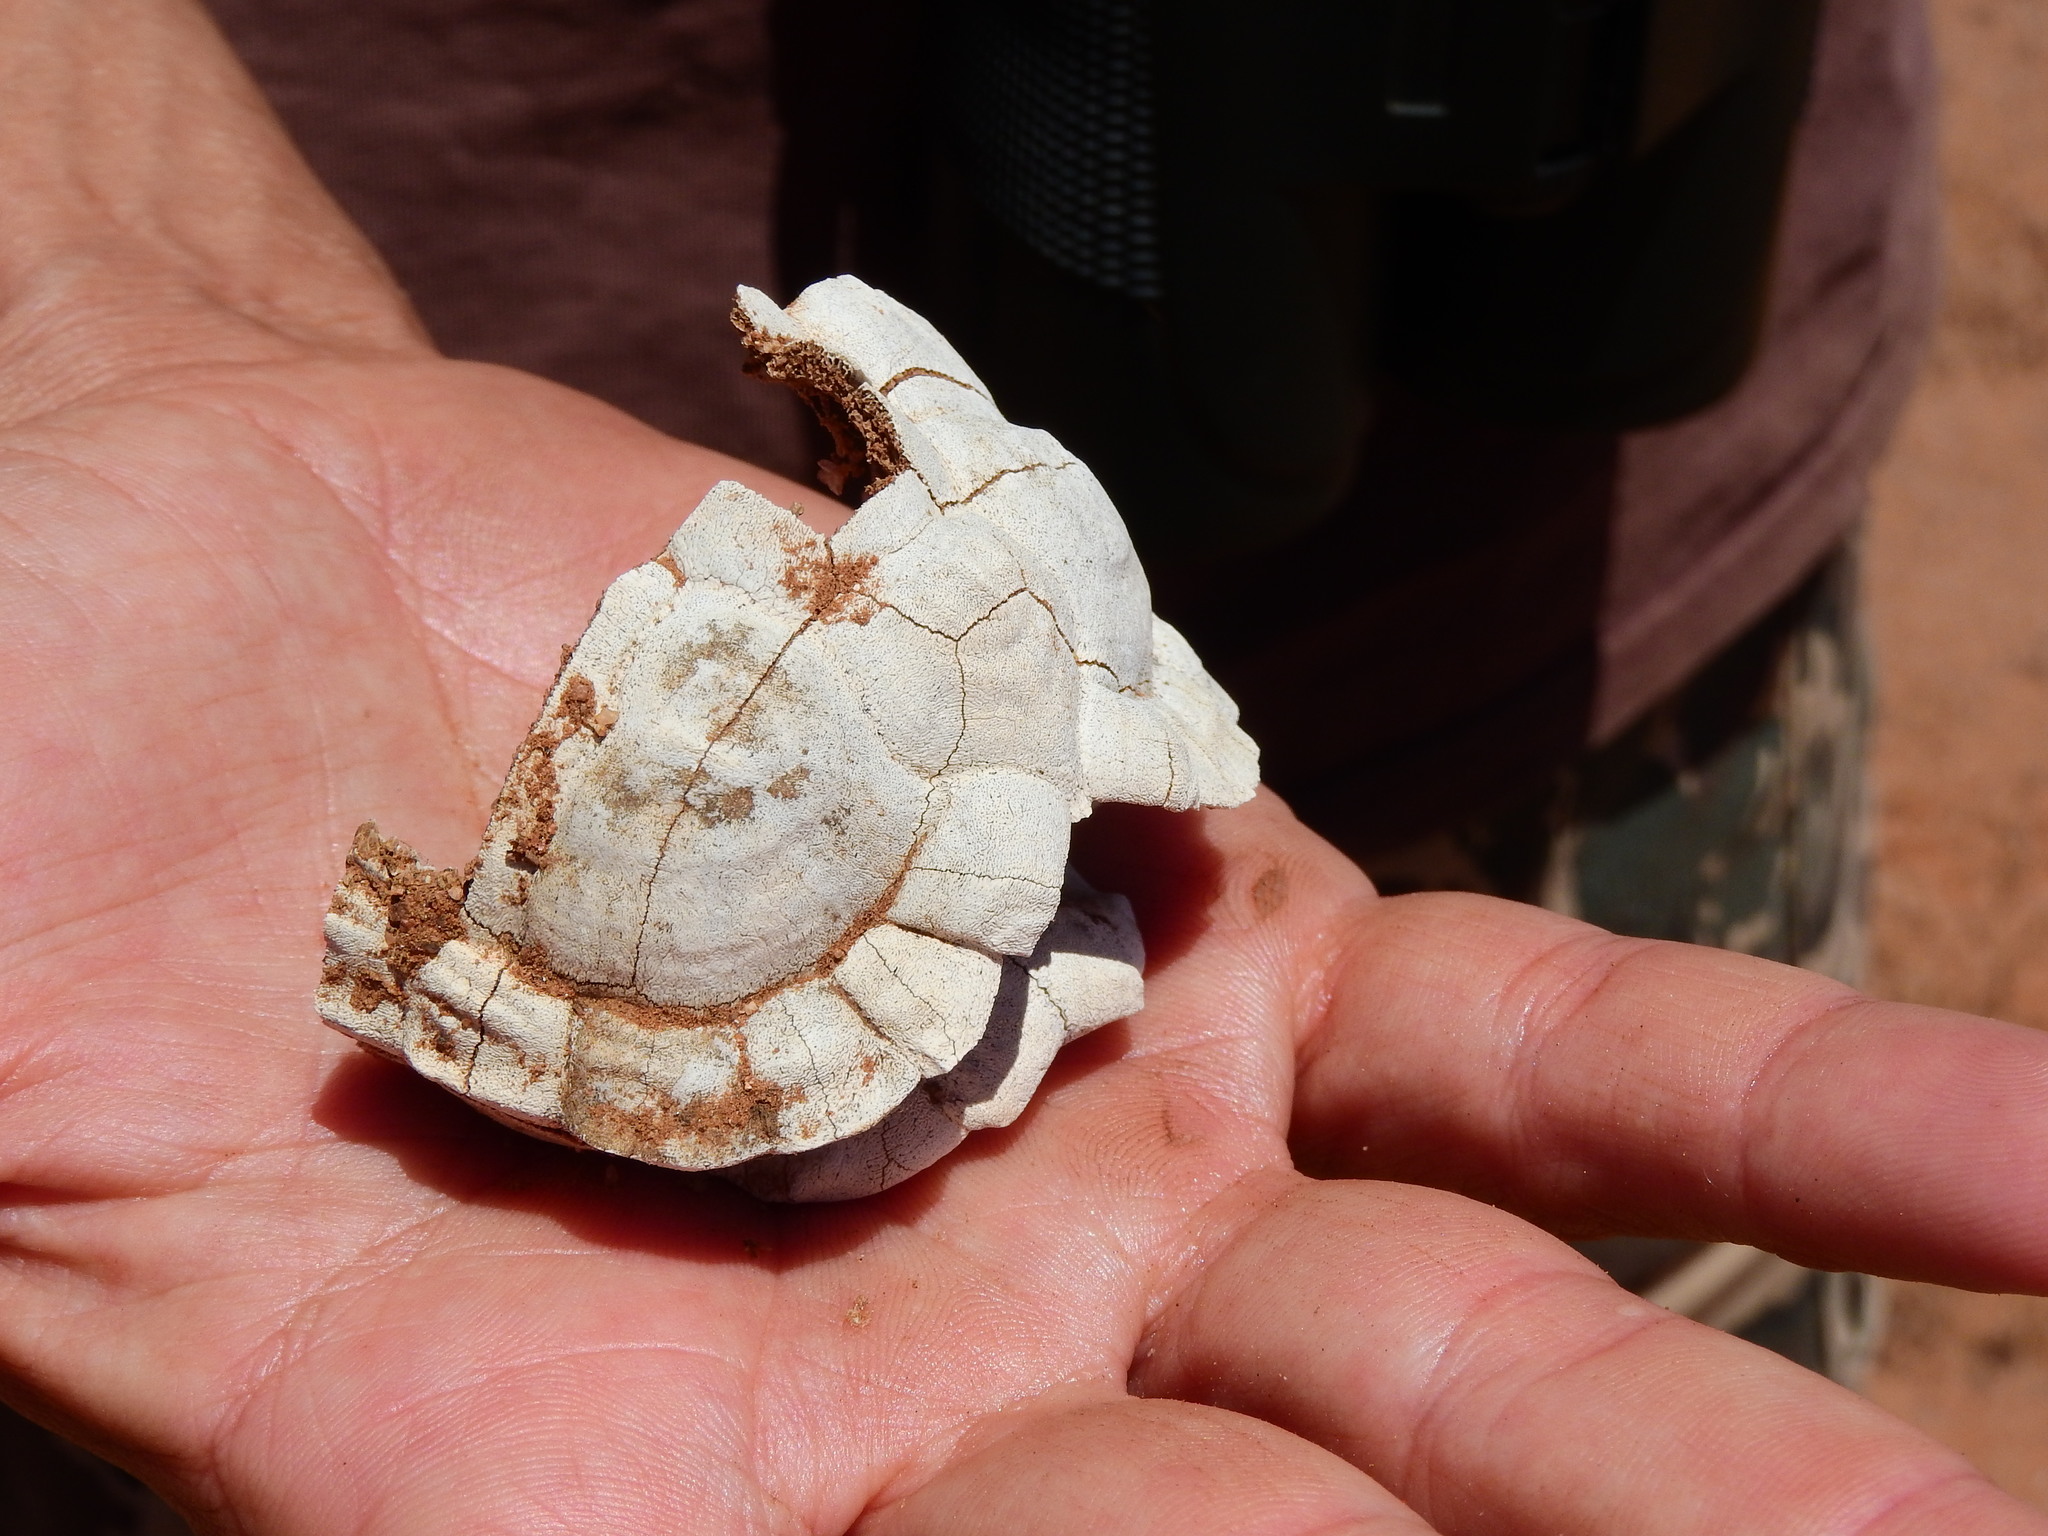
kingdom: Animalia
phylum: Chordata
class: Testudines
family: Testudinidae
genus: Psammobates
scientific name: Psammobates tentorius
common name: Tent tortoise
